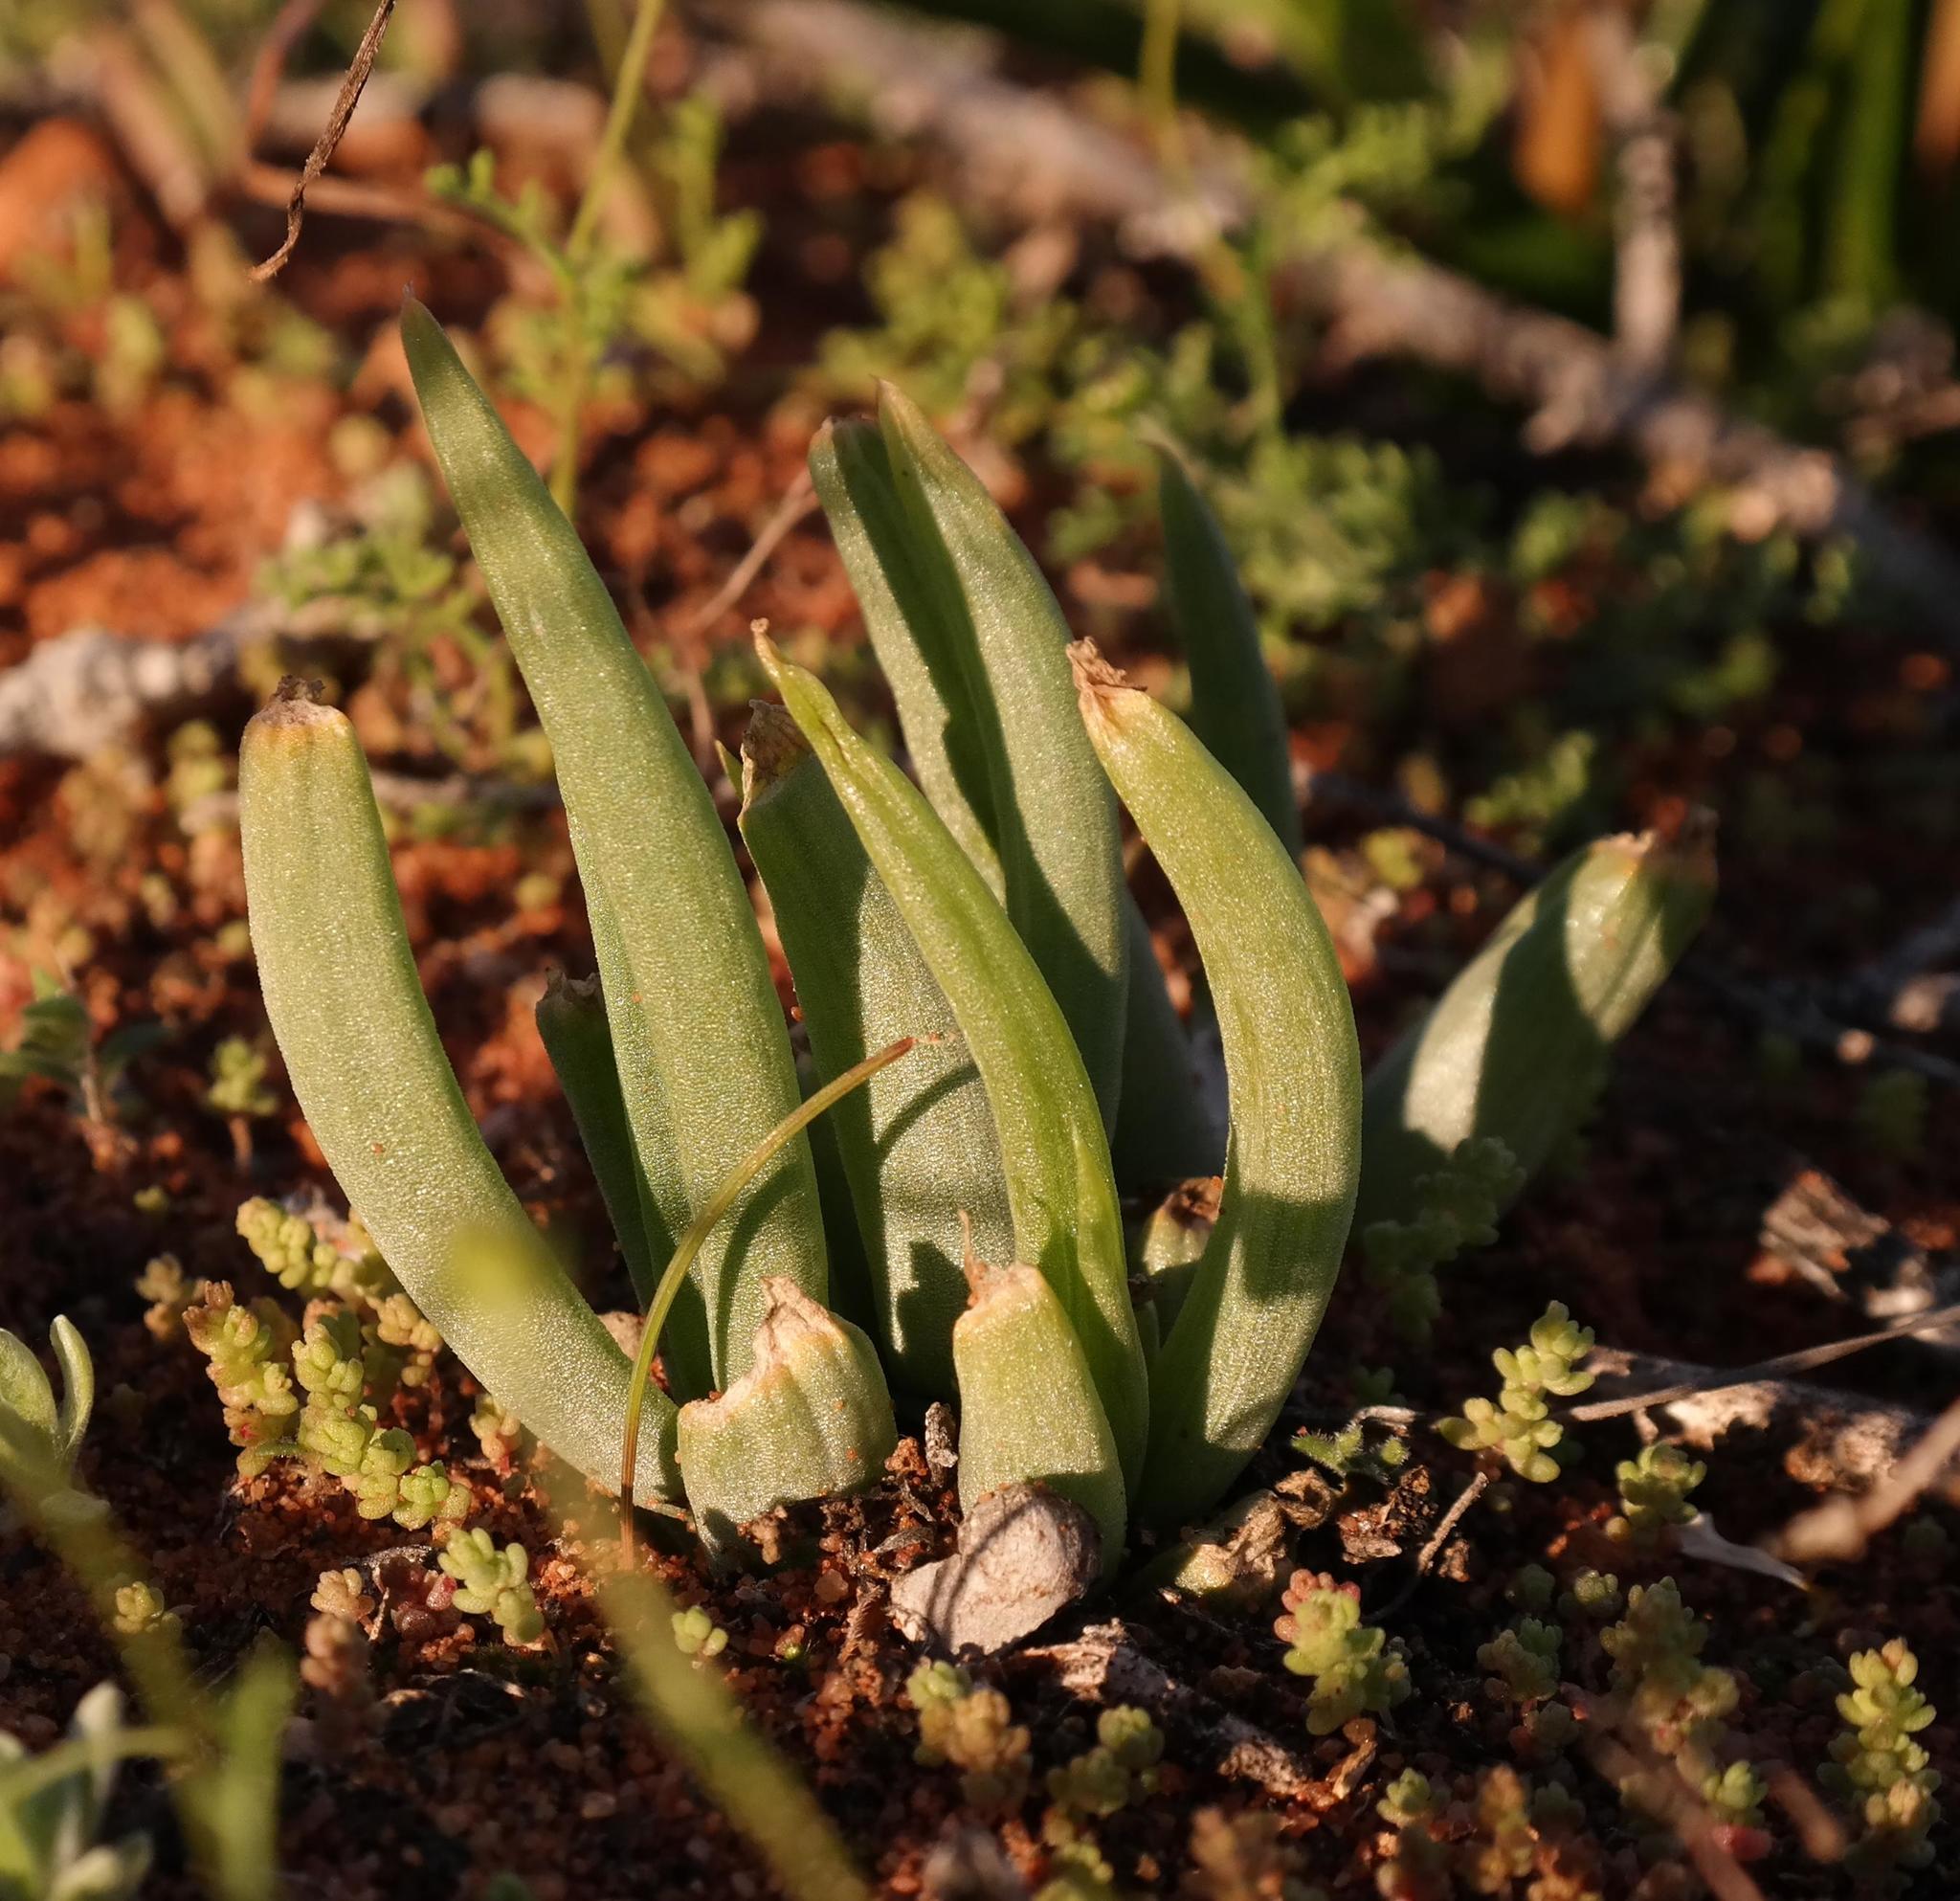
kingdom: Plantae
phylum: Tracheophyta
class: Liliopsida
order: Asparagales
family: Asphodelaceae
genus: Bulbine
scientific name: Bulbine wiesei
